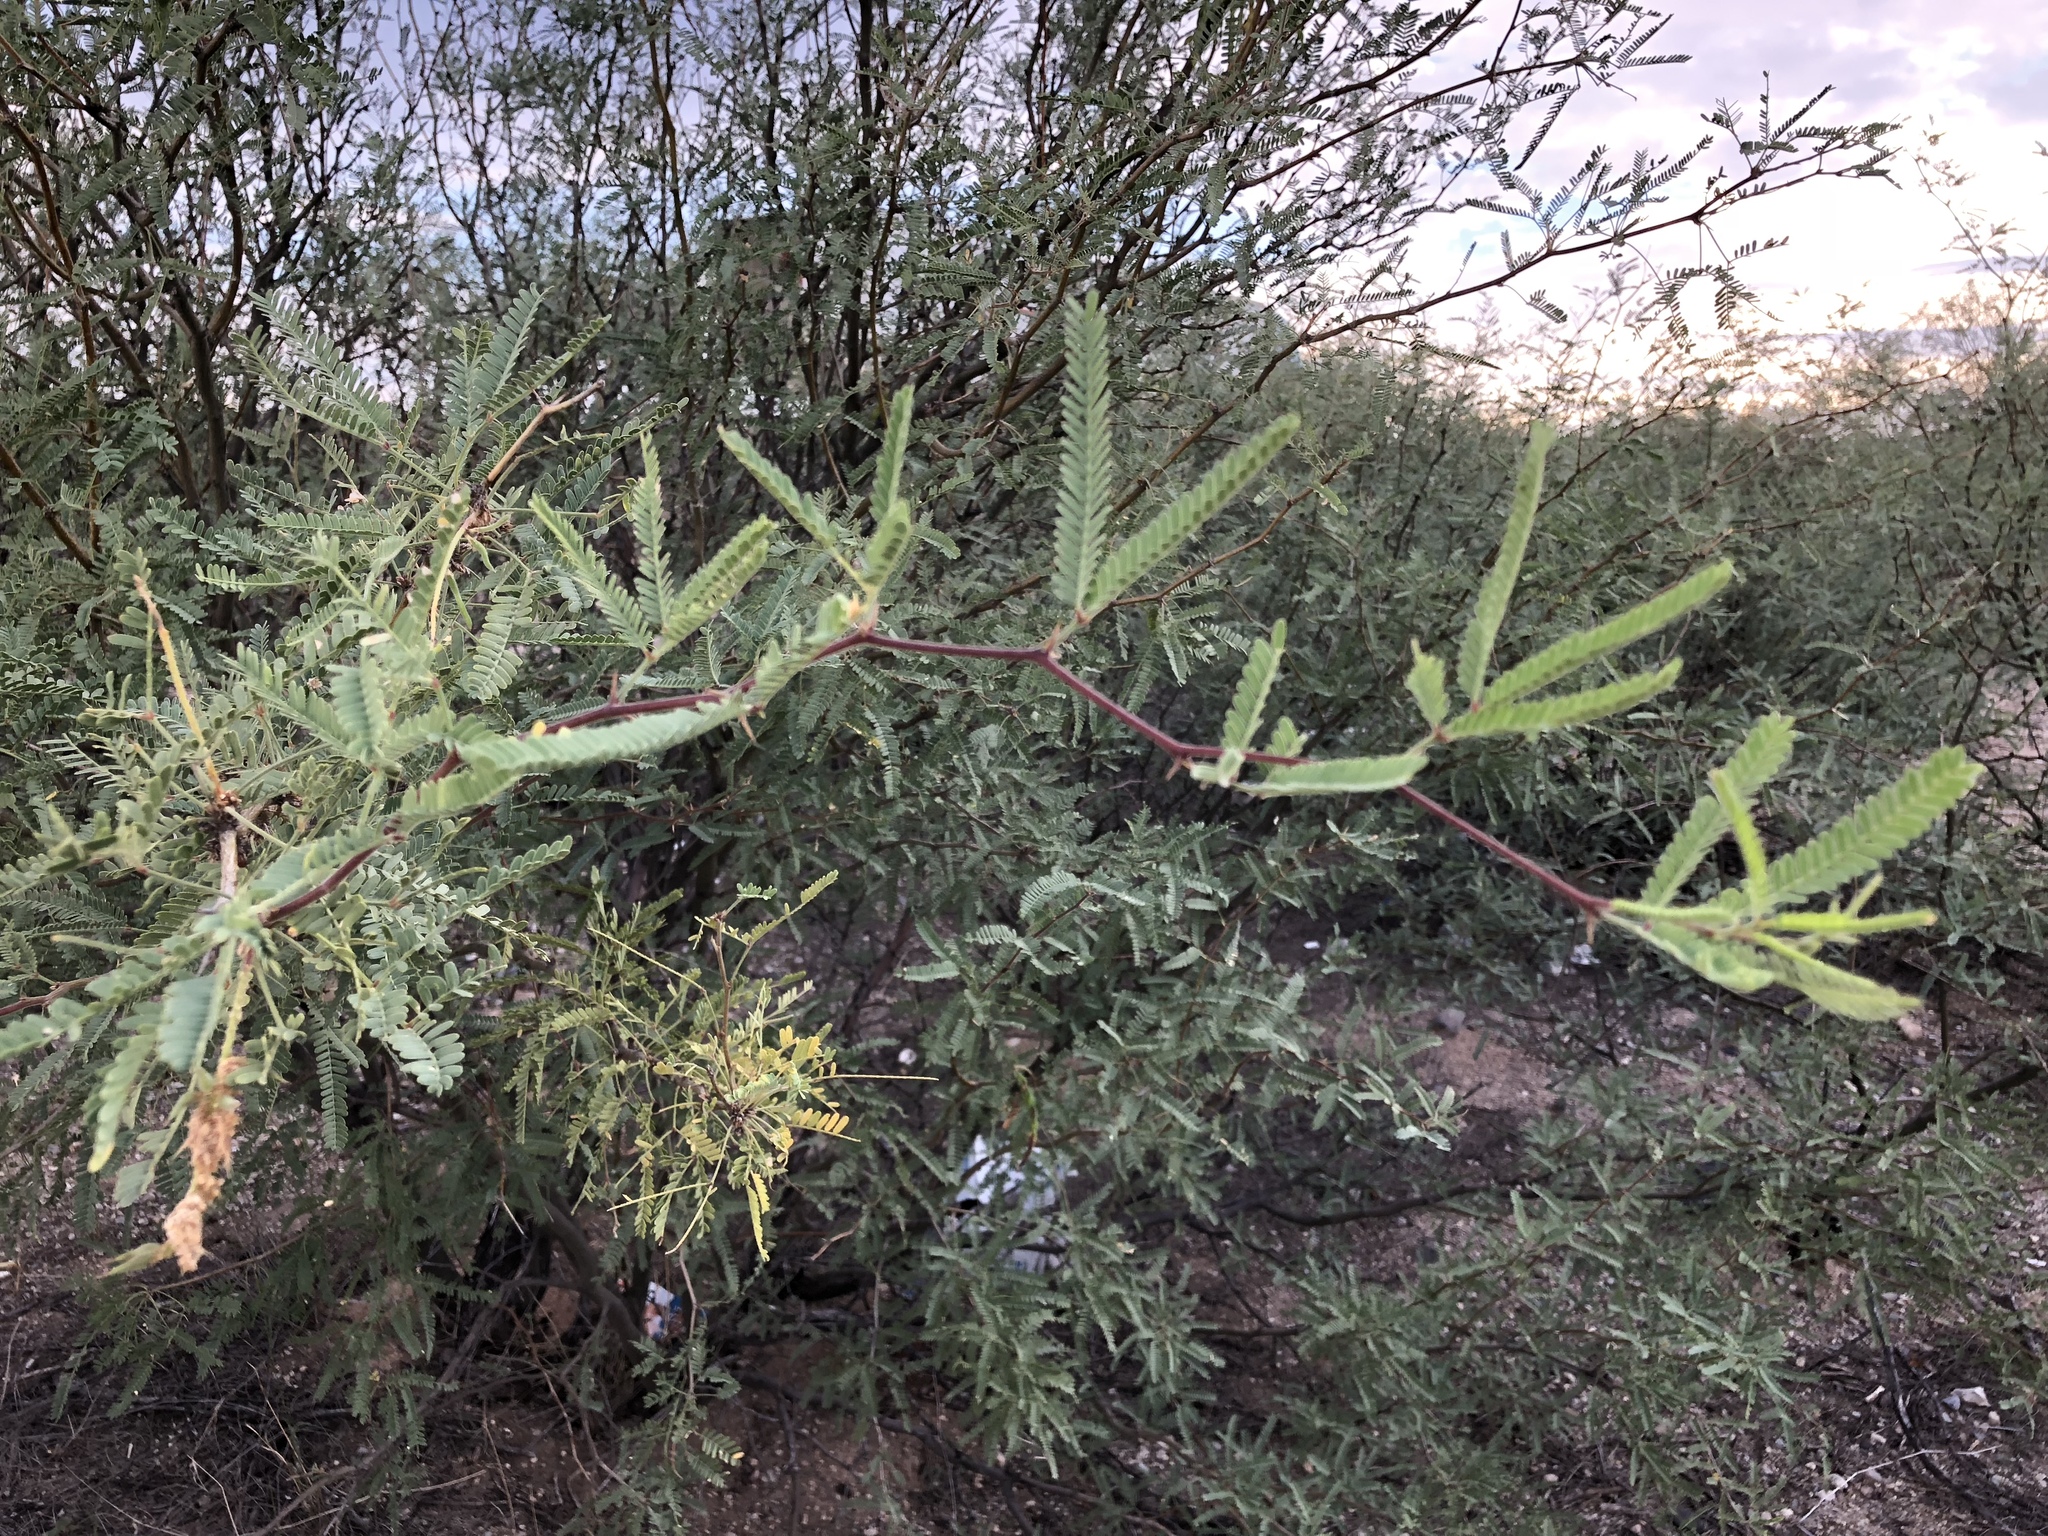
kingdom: Plantae
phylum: Tracheophyta
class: Magnoliopsida
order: Fabales
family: Fabaceae
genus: Prosopis
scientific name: Prosopis velutina
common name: Velvet mesquite
